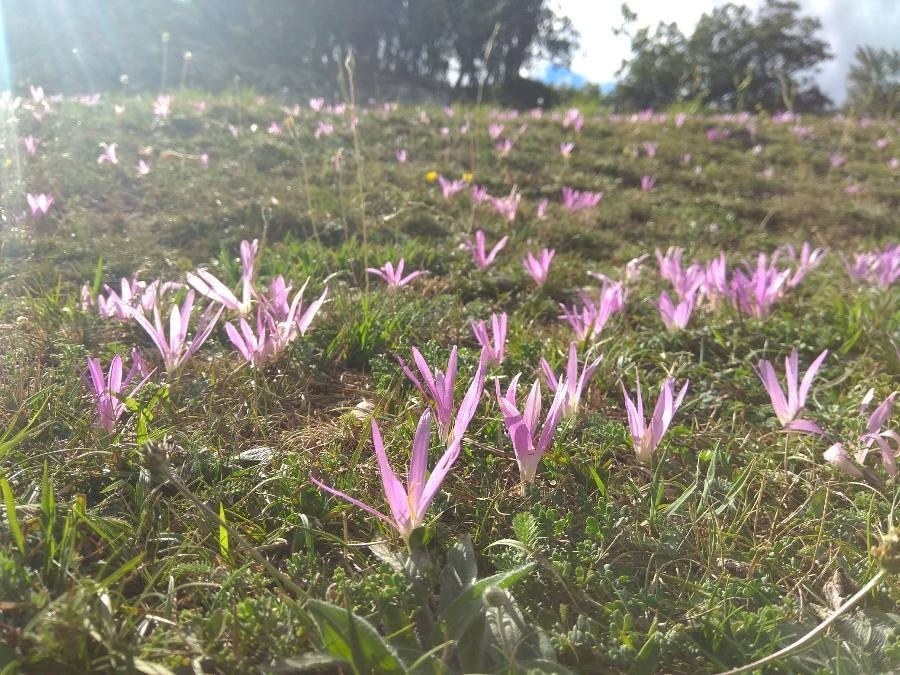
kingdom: Plantae
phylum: Tracheophyta
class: Liliopsida
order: Liliales
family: Colchicaceae
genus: Colchicum
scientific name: Colchicum montanum
